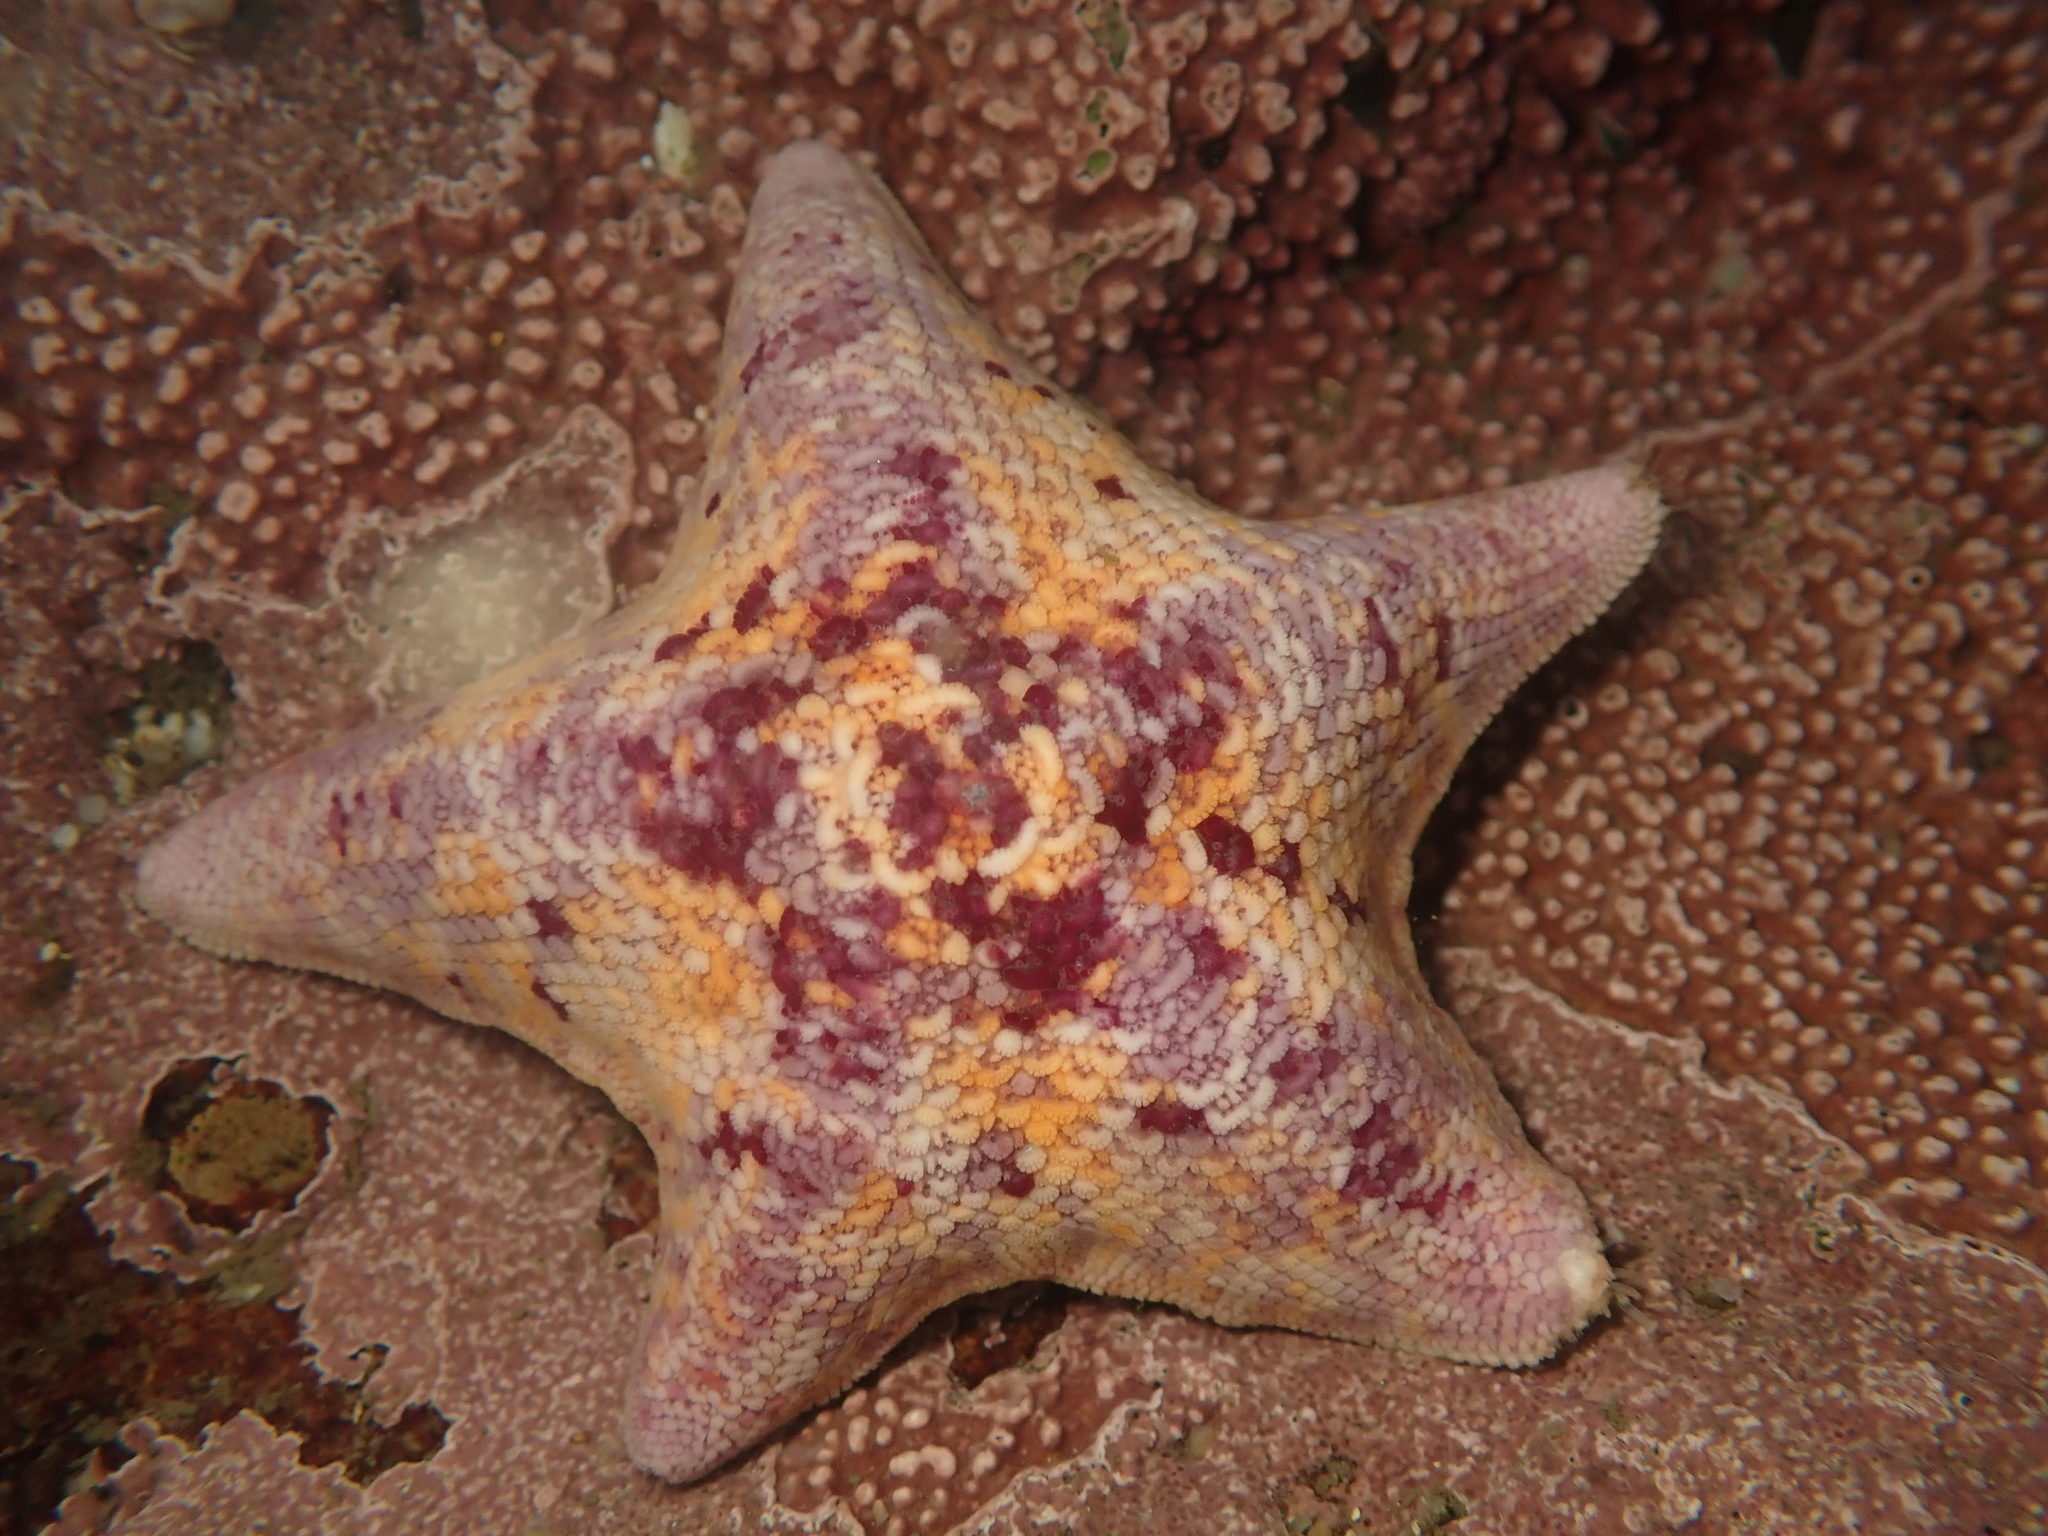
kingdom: Animalia
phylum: Echinodermata
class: Asteroidea
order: Valvatida
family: Asterinidae
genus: Patiria
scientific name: Patiria miniata
